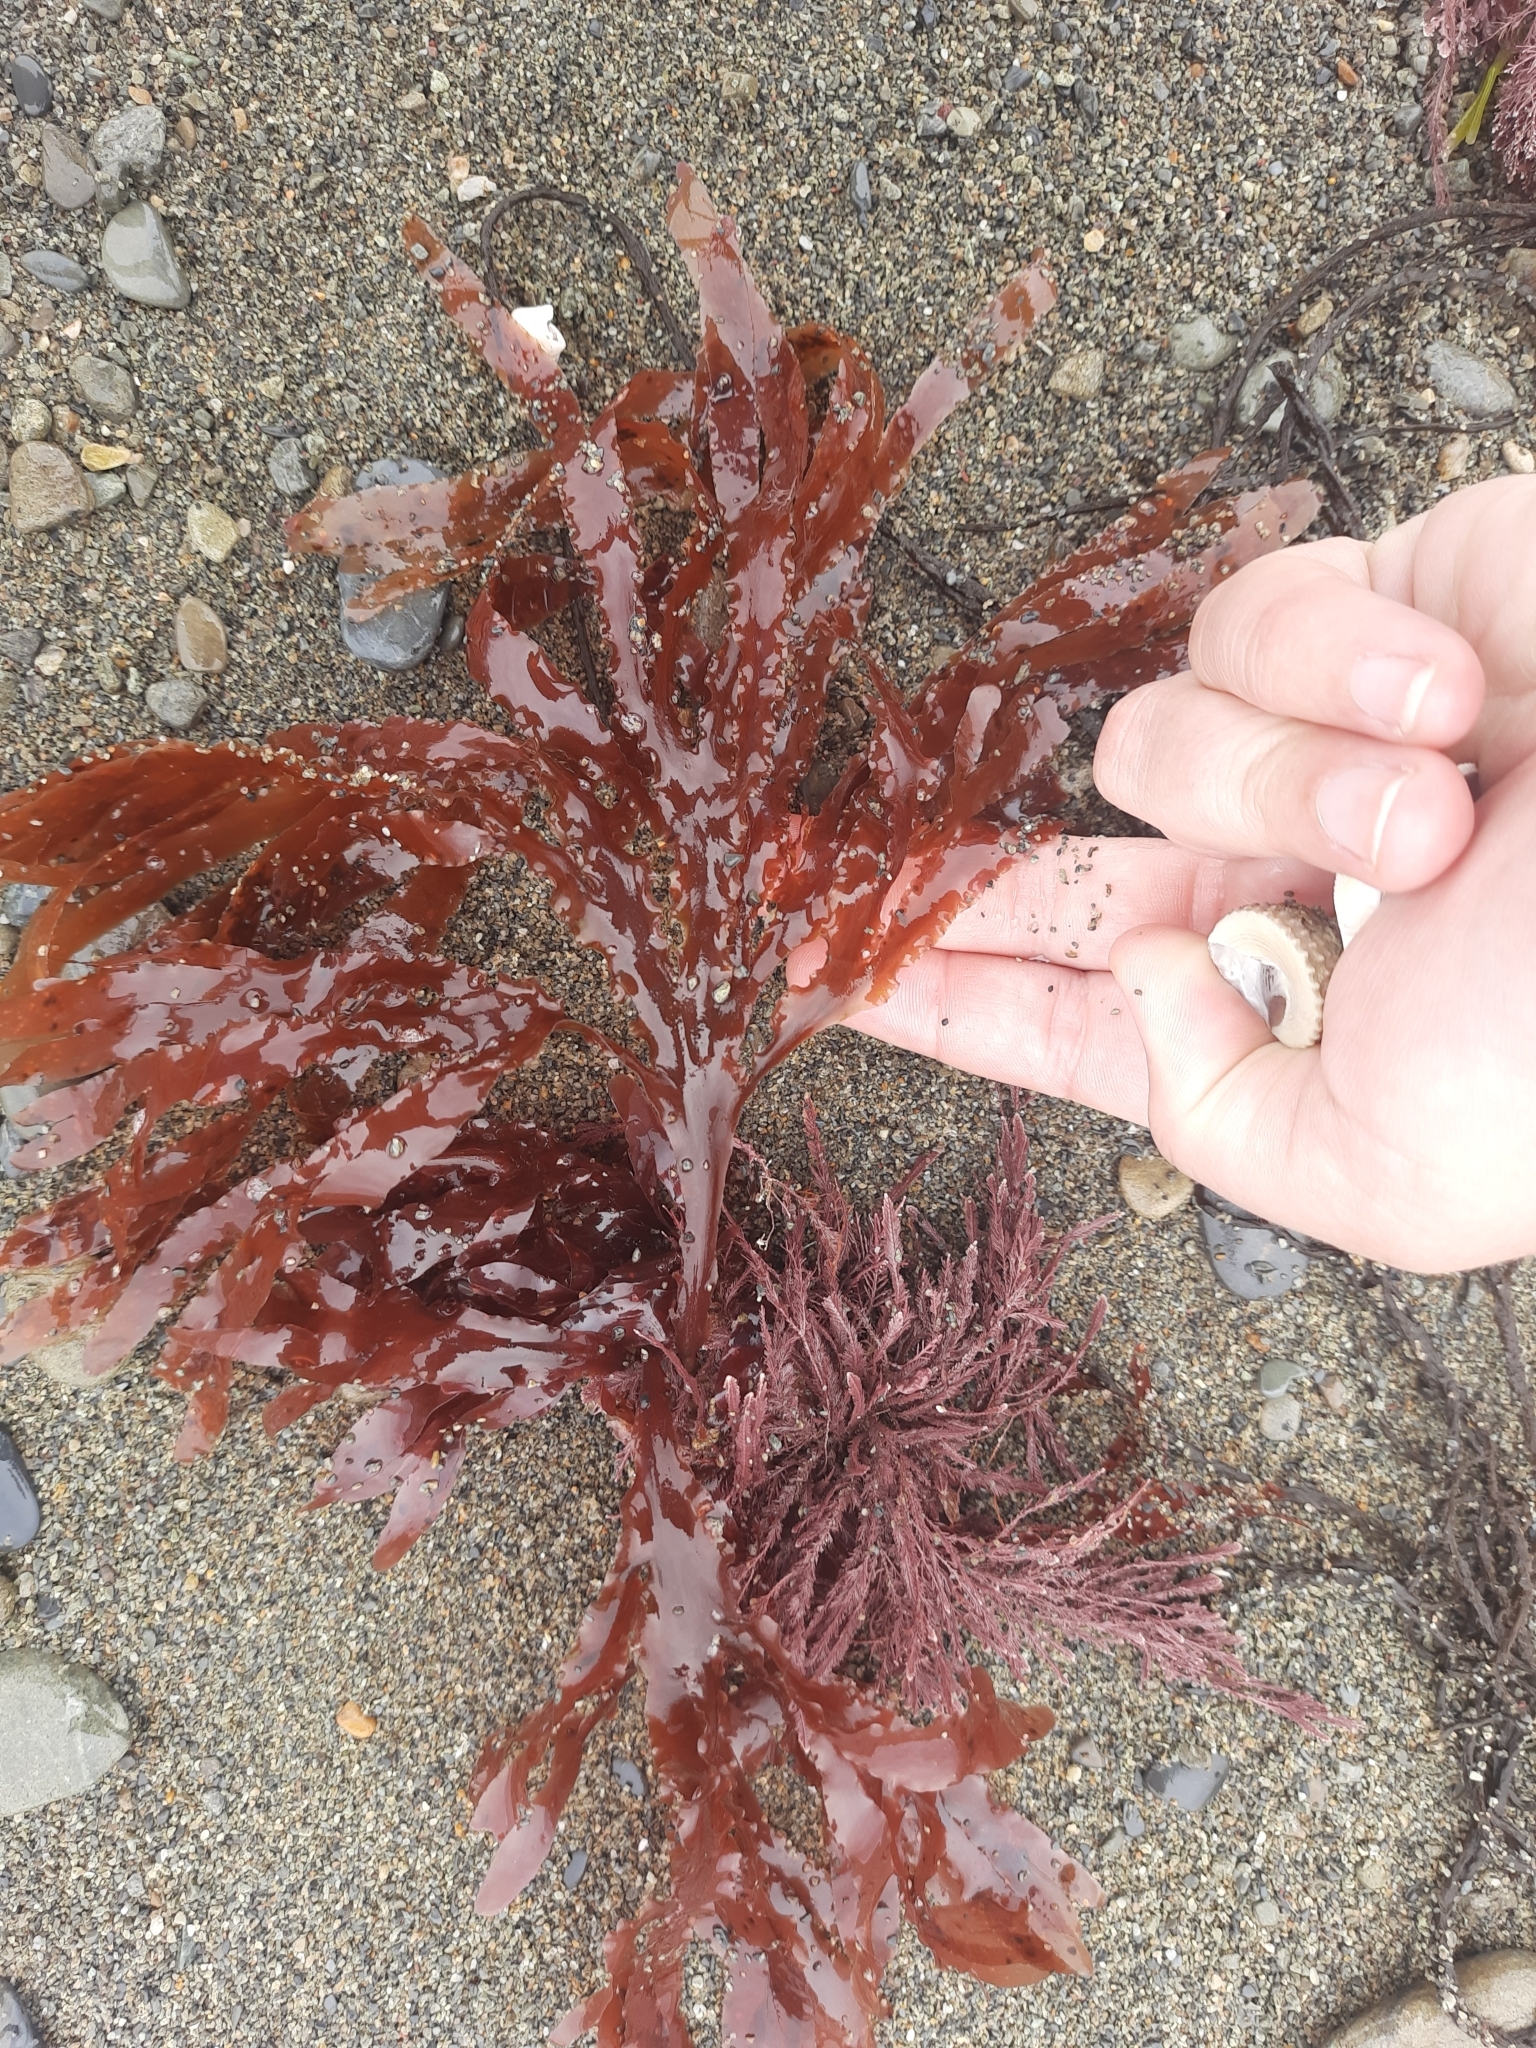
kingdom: Plantae
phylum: Rhodophyta
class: Florideophyceae
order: Ceramiales
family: Delesseriaceae
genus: Hymenena
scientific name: Hymenena durvillaei
